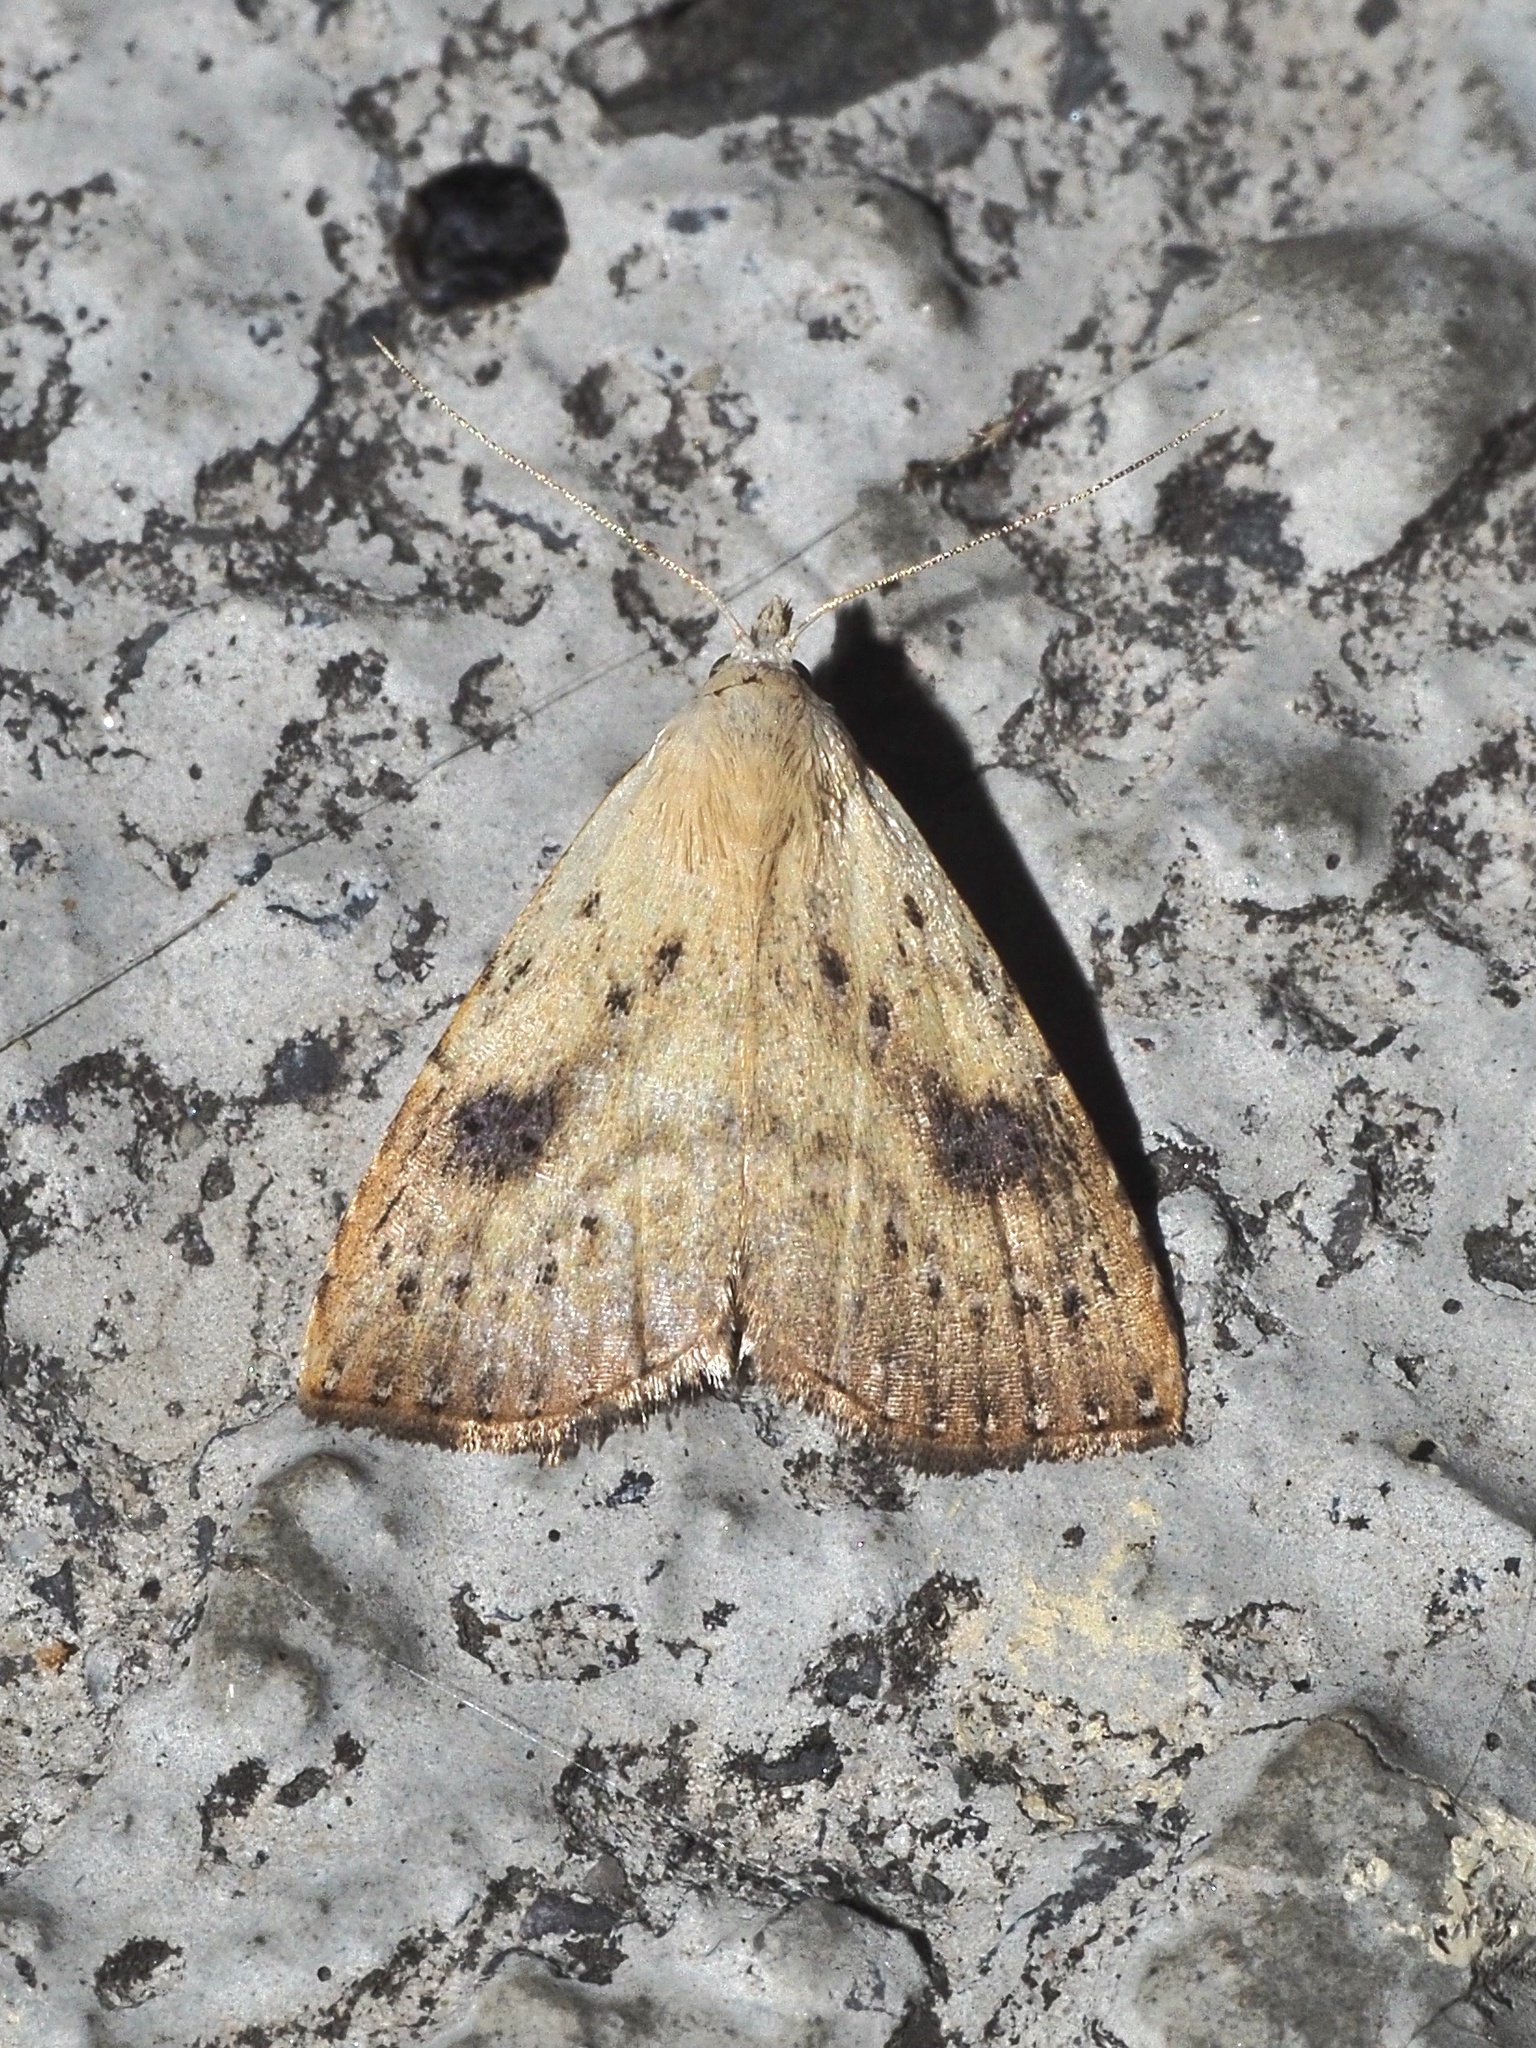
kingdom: Animalia
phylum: Arthropoda
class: Insecta
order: Lepidoptera
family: Erebidae
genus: Rivula
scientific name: Rivula sericealis
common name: Straw dot
